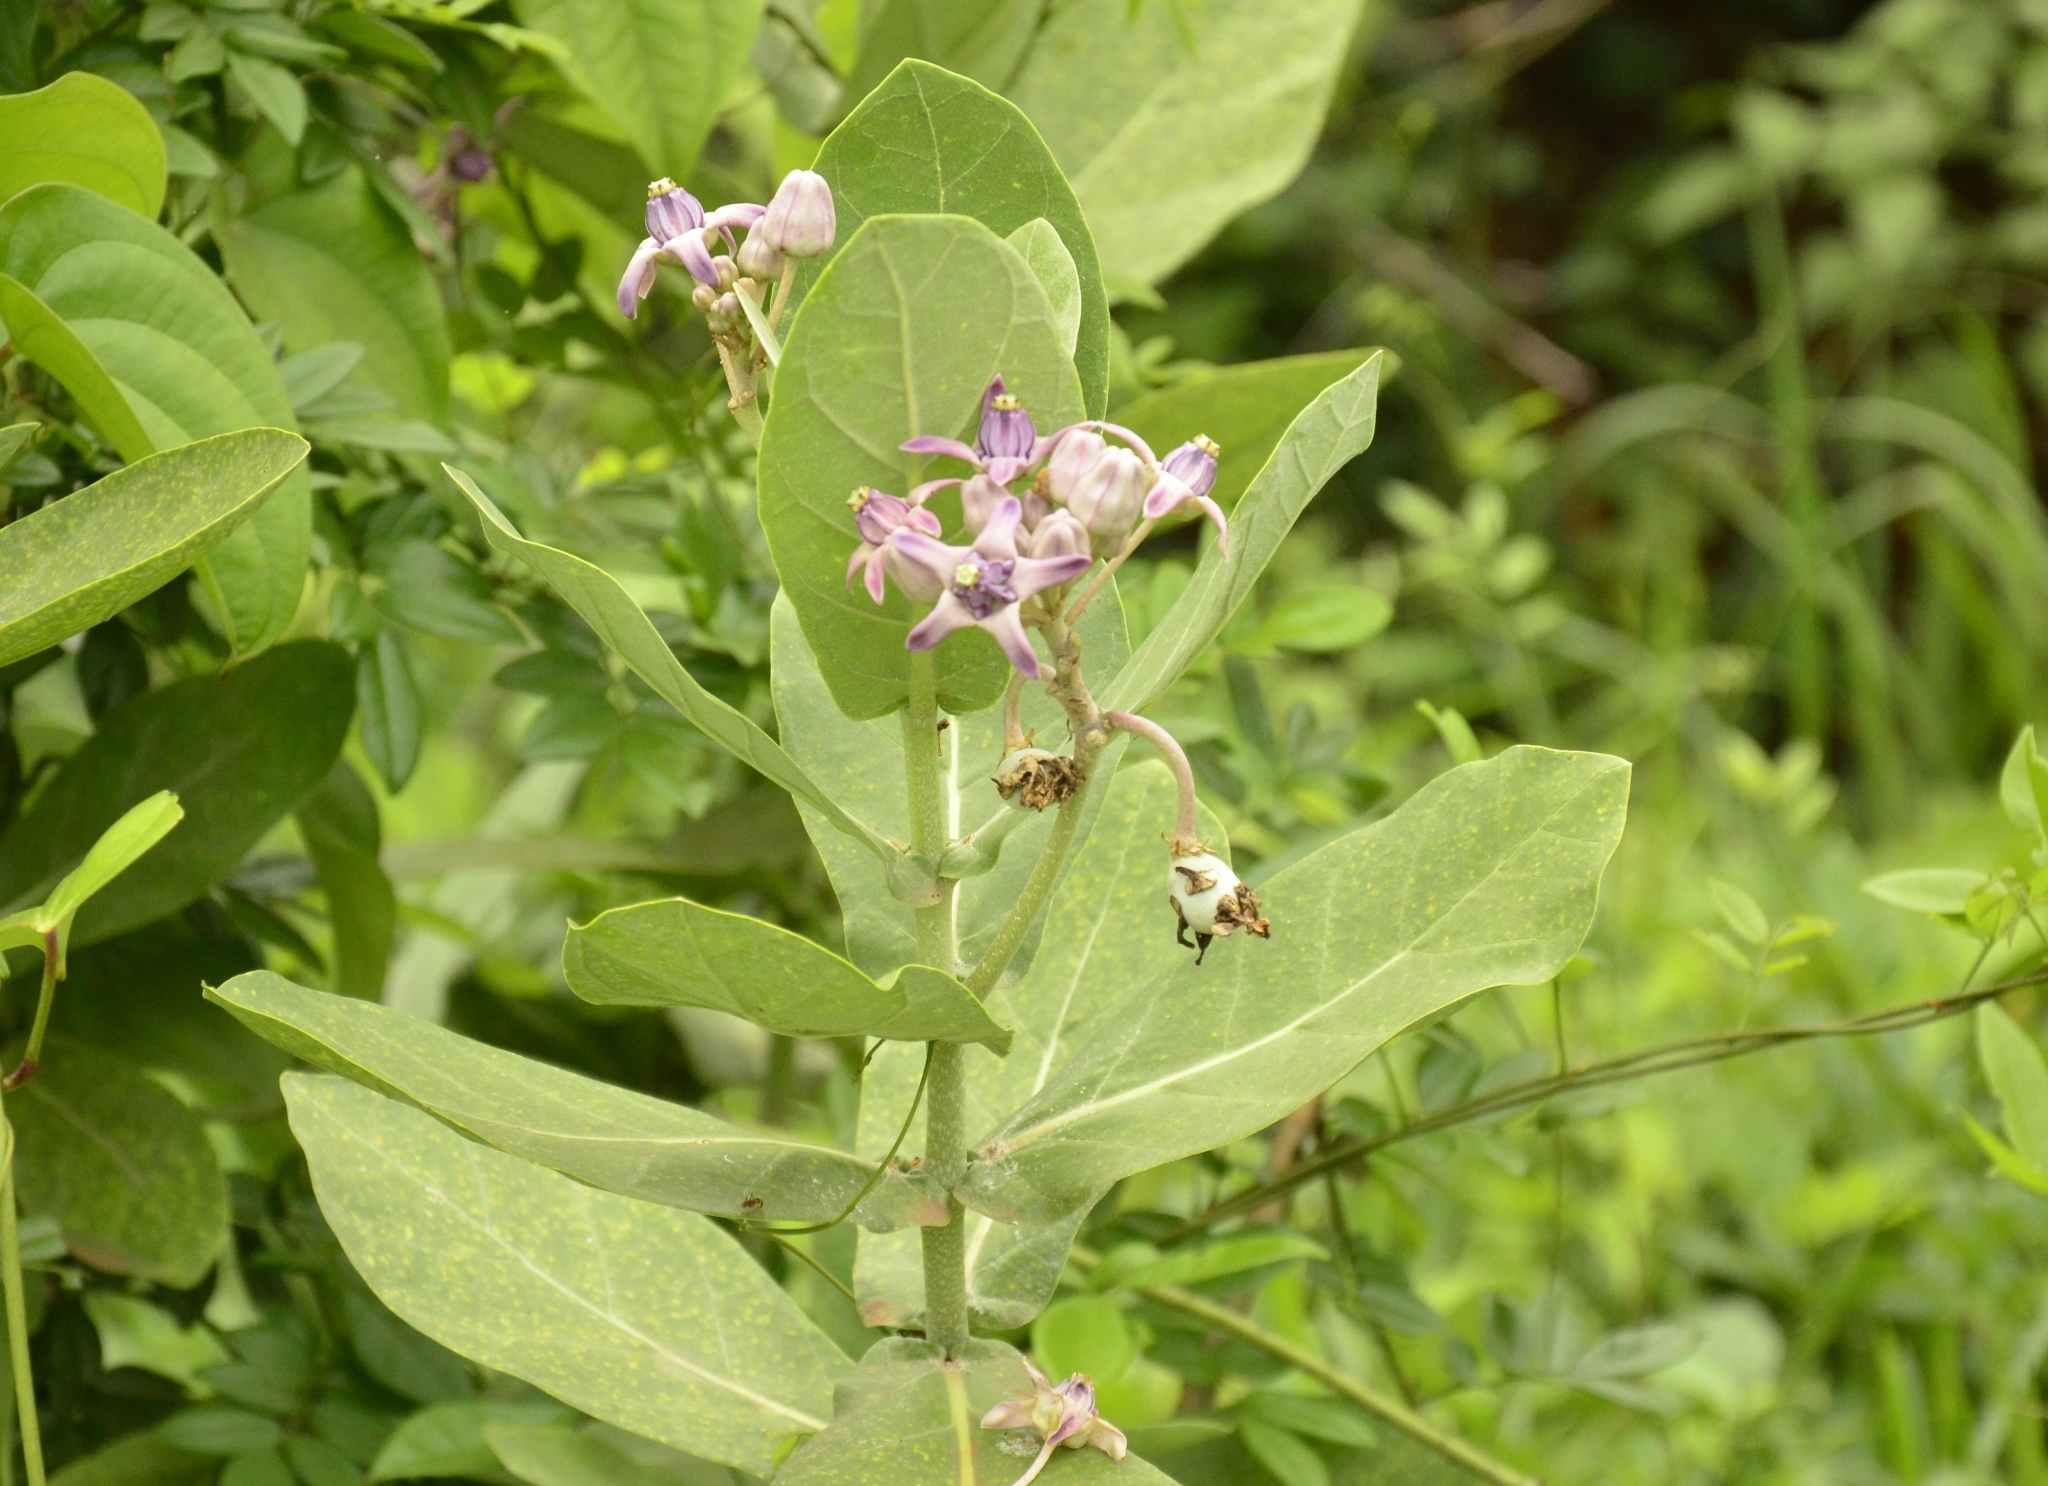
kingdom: Plantae
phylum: Tracheophyta
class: Magnoliopsida
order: Gentianales
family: Apocynaceae
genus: Calotropis
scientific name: Calotropis gigantea
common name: Crown flower
